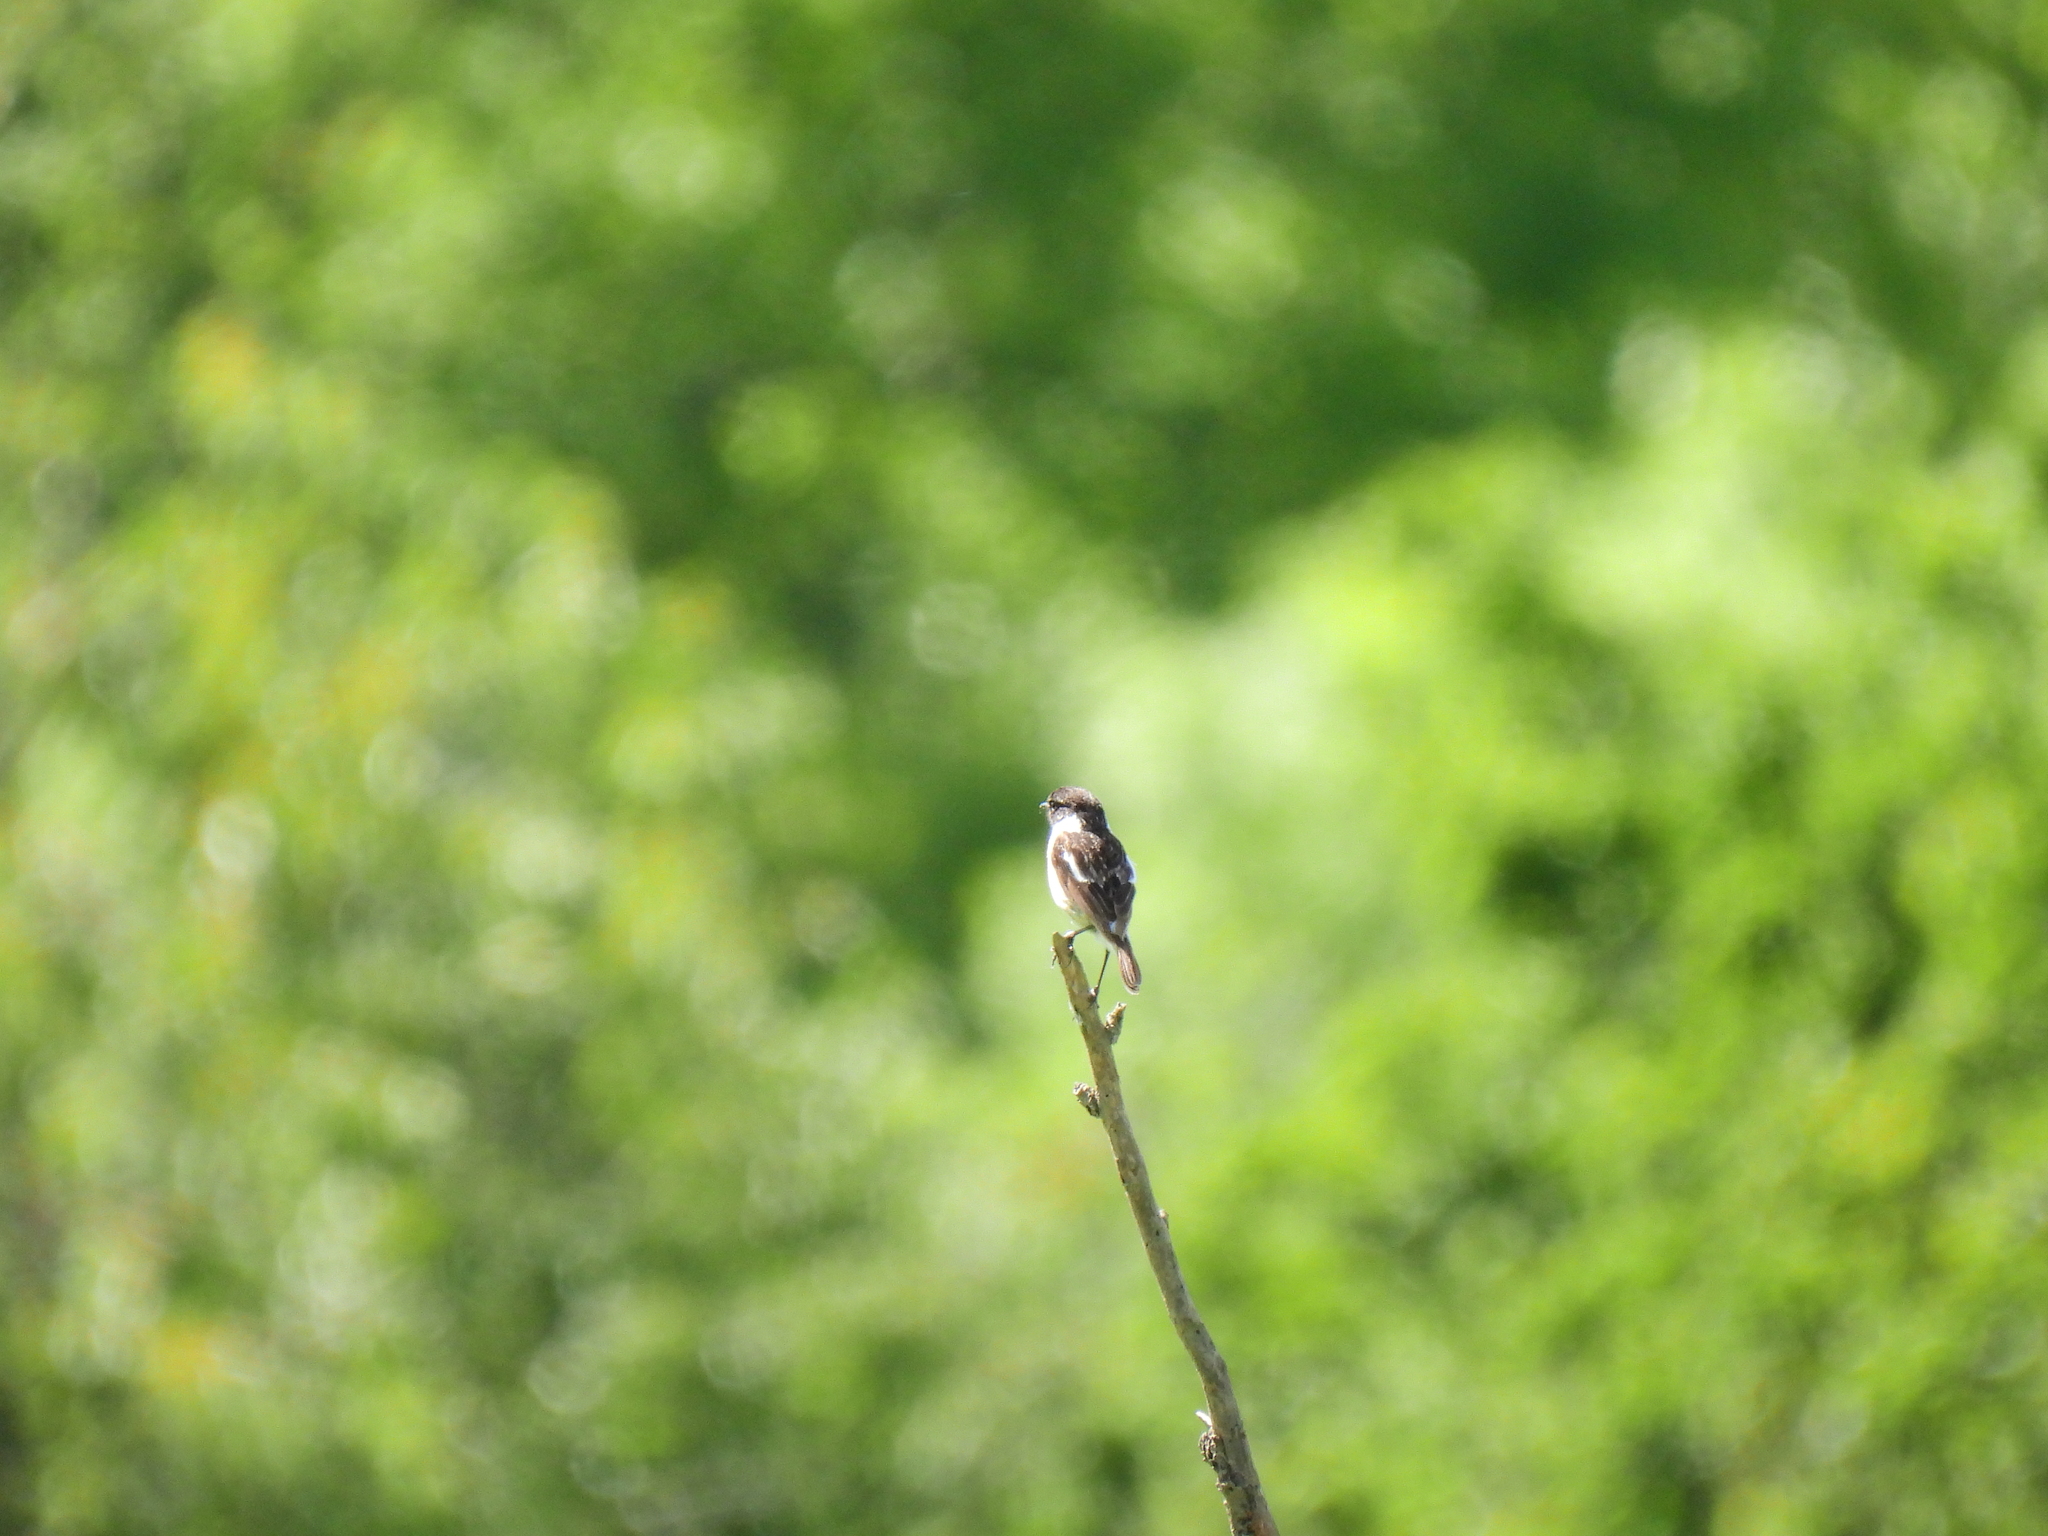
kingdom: Animalia
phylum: Chordata
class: Aves
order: Passeriformes
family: Muscicapidae
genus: Saxicola
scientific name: Saxicola rubicola
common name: European stonechat
